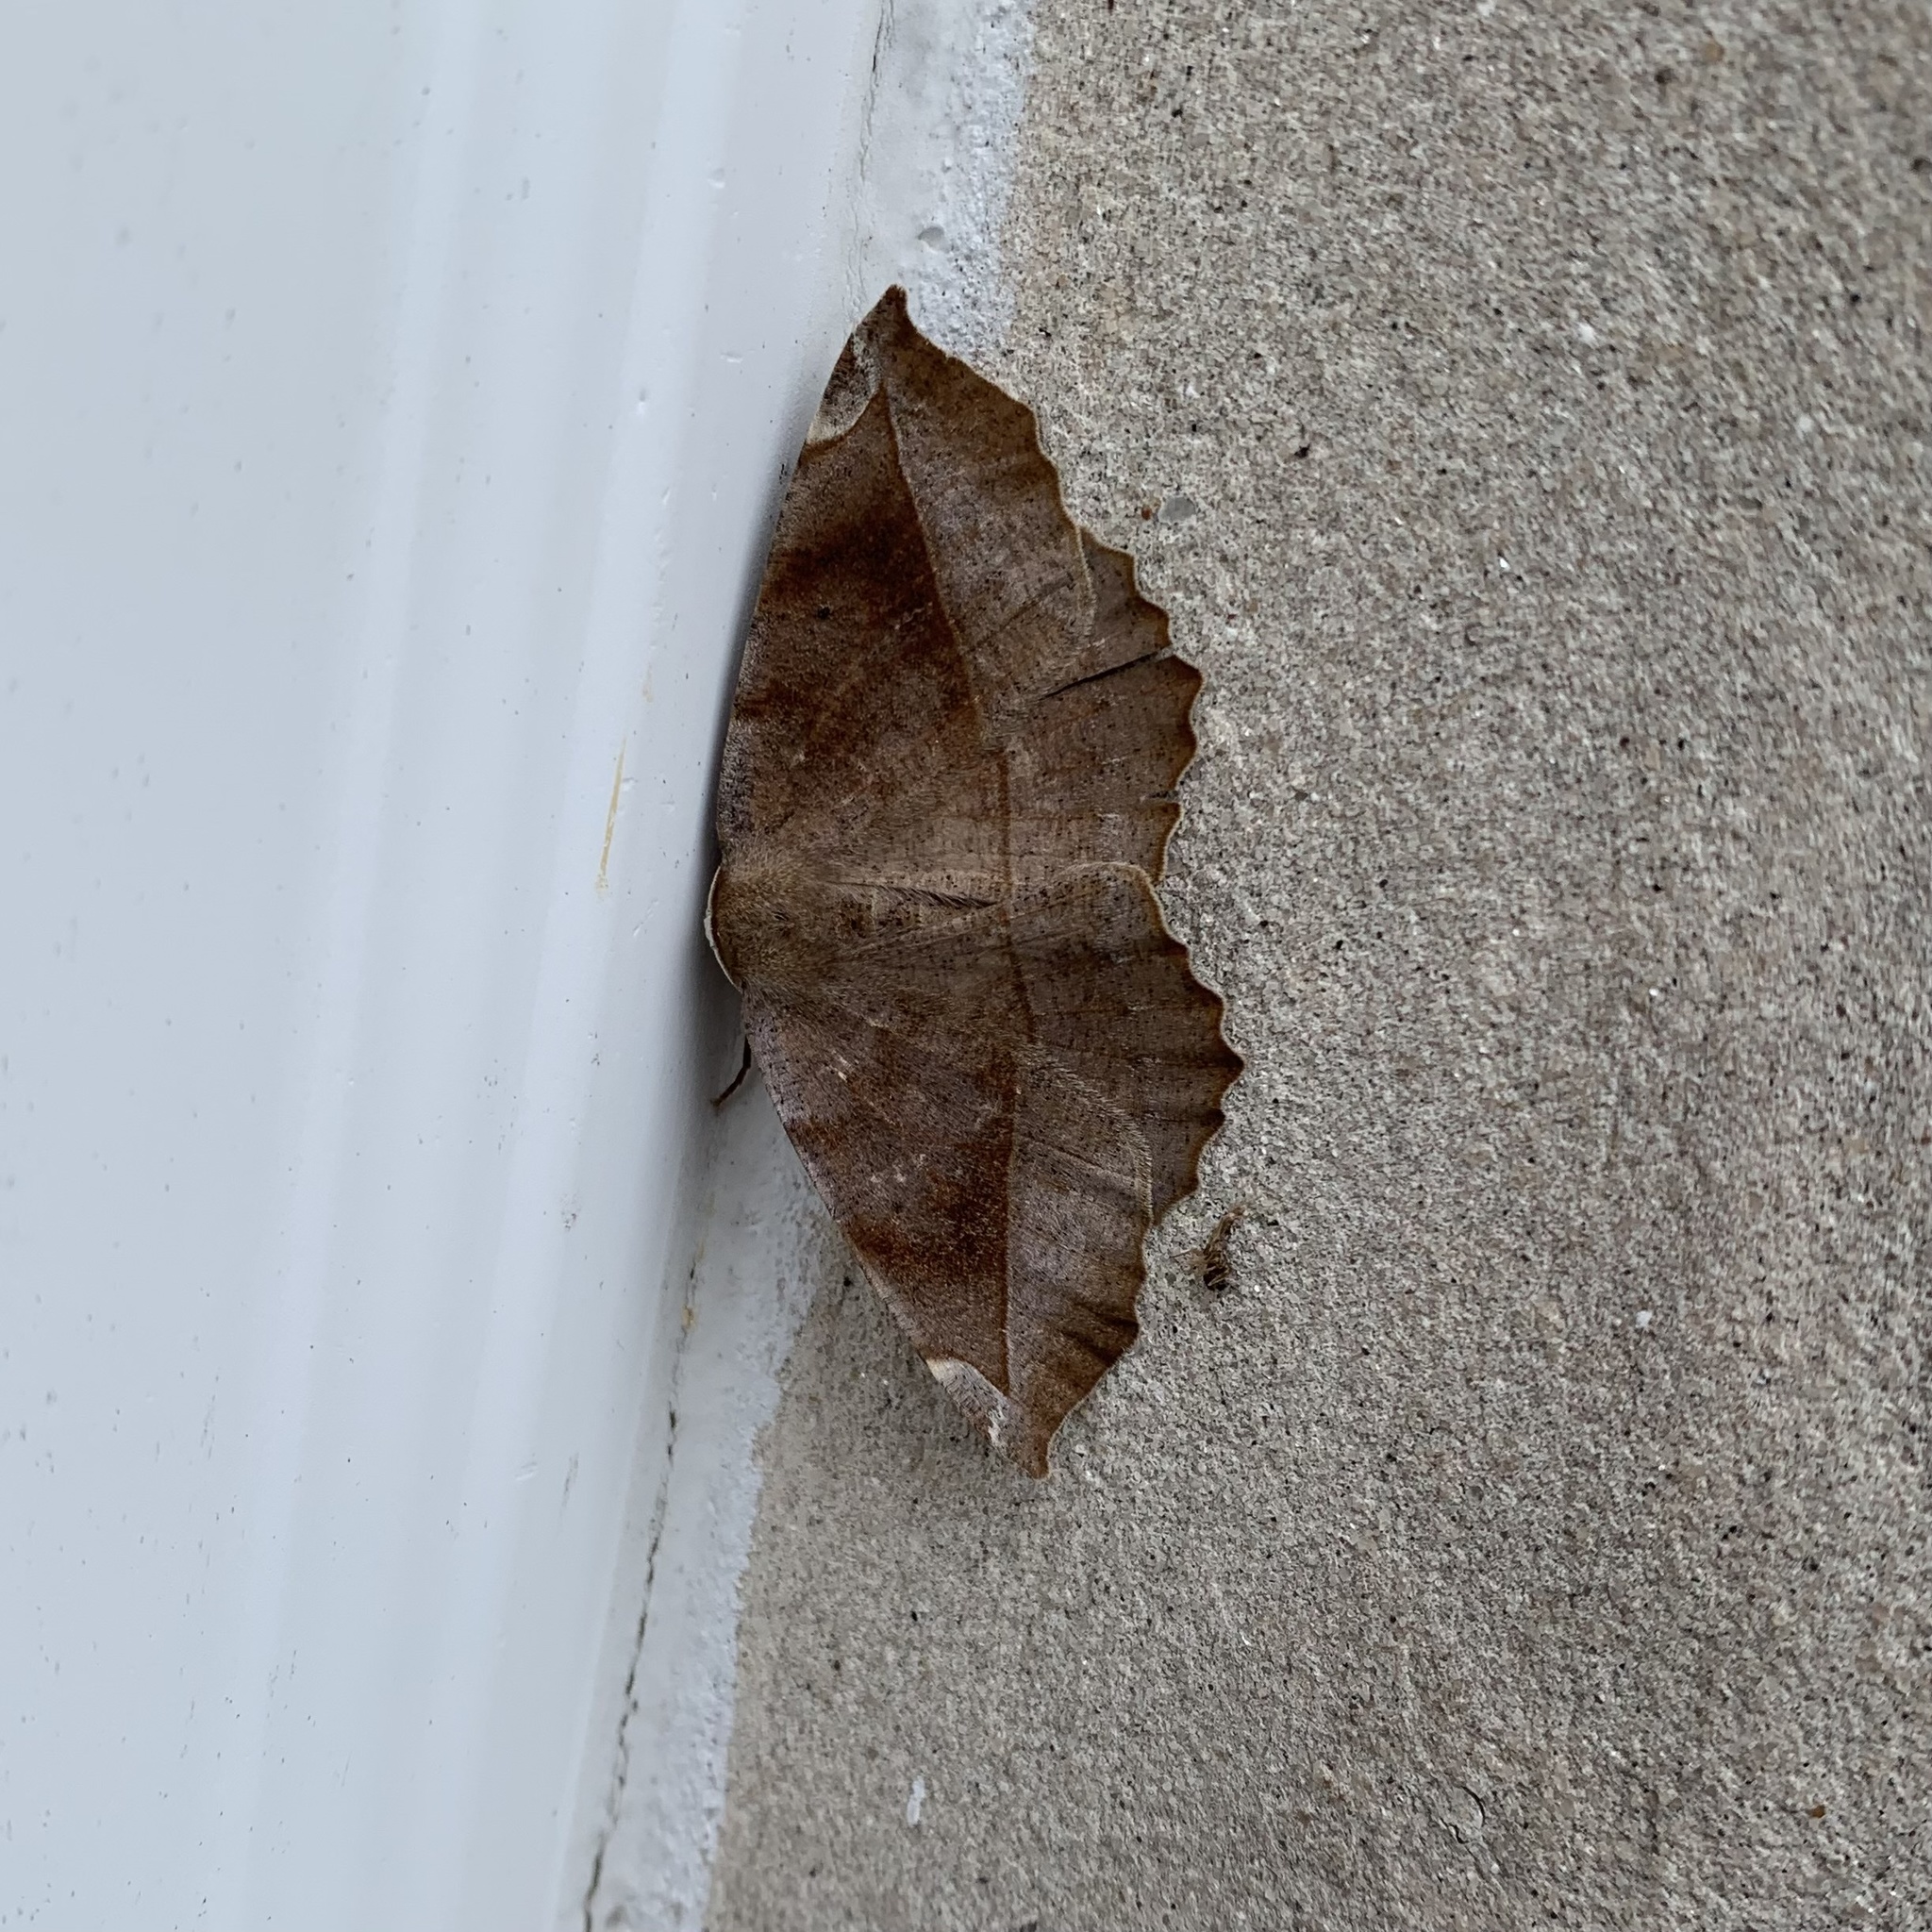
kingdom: Animalia
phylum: Arthropoda
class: Insecta
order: Lepidoptera
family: Geometridae
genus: Eutrapela
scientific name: Eutrapela clemataria
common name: Curved-toothed geometer
